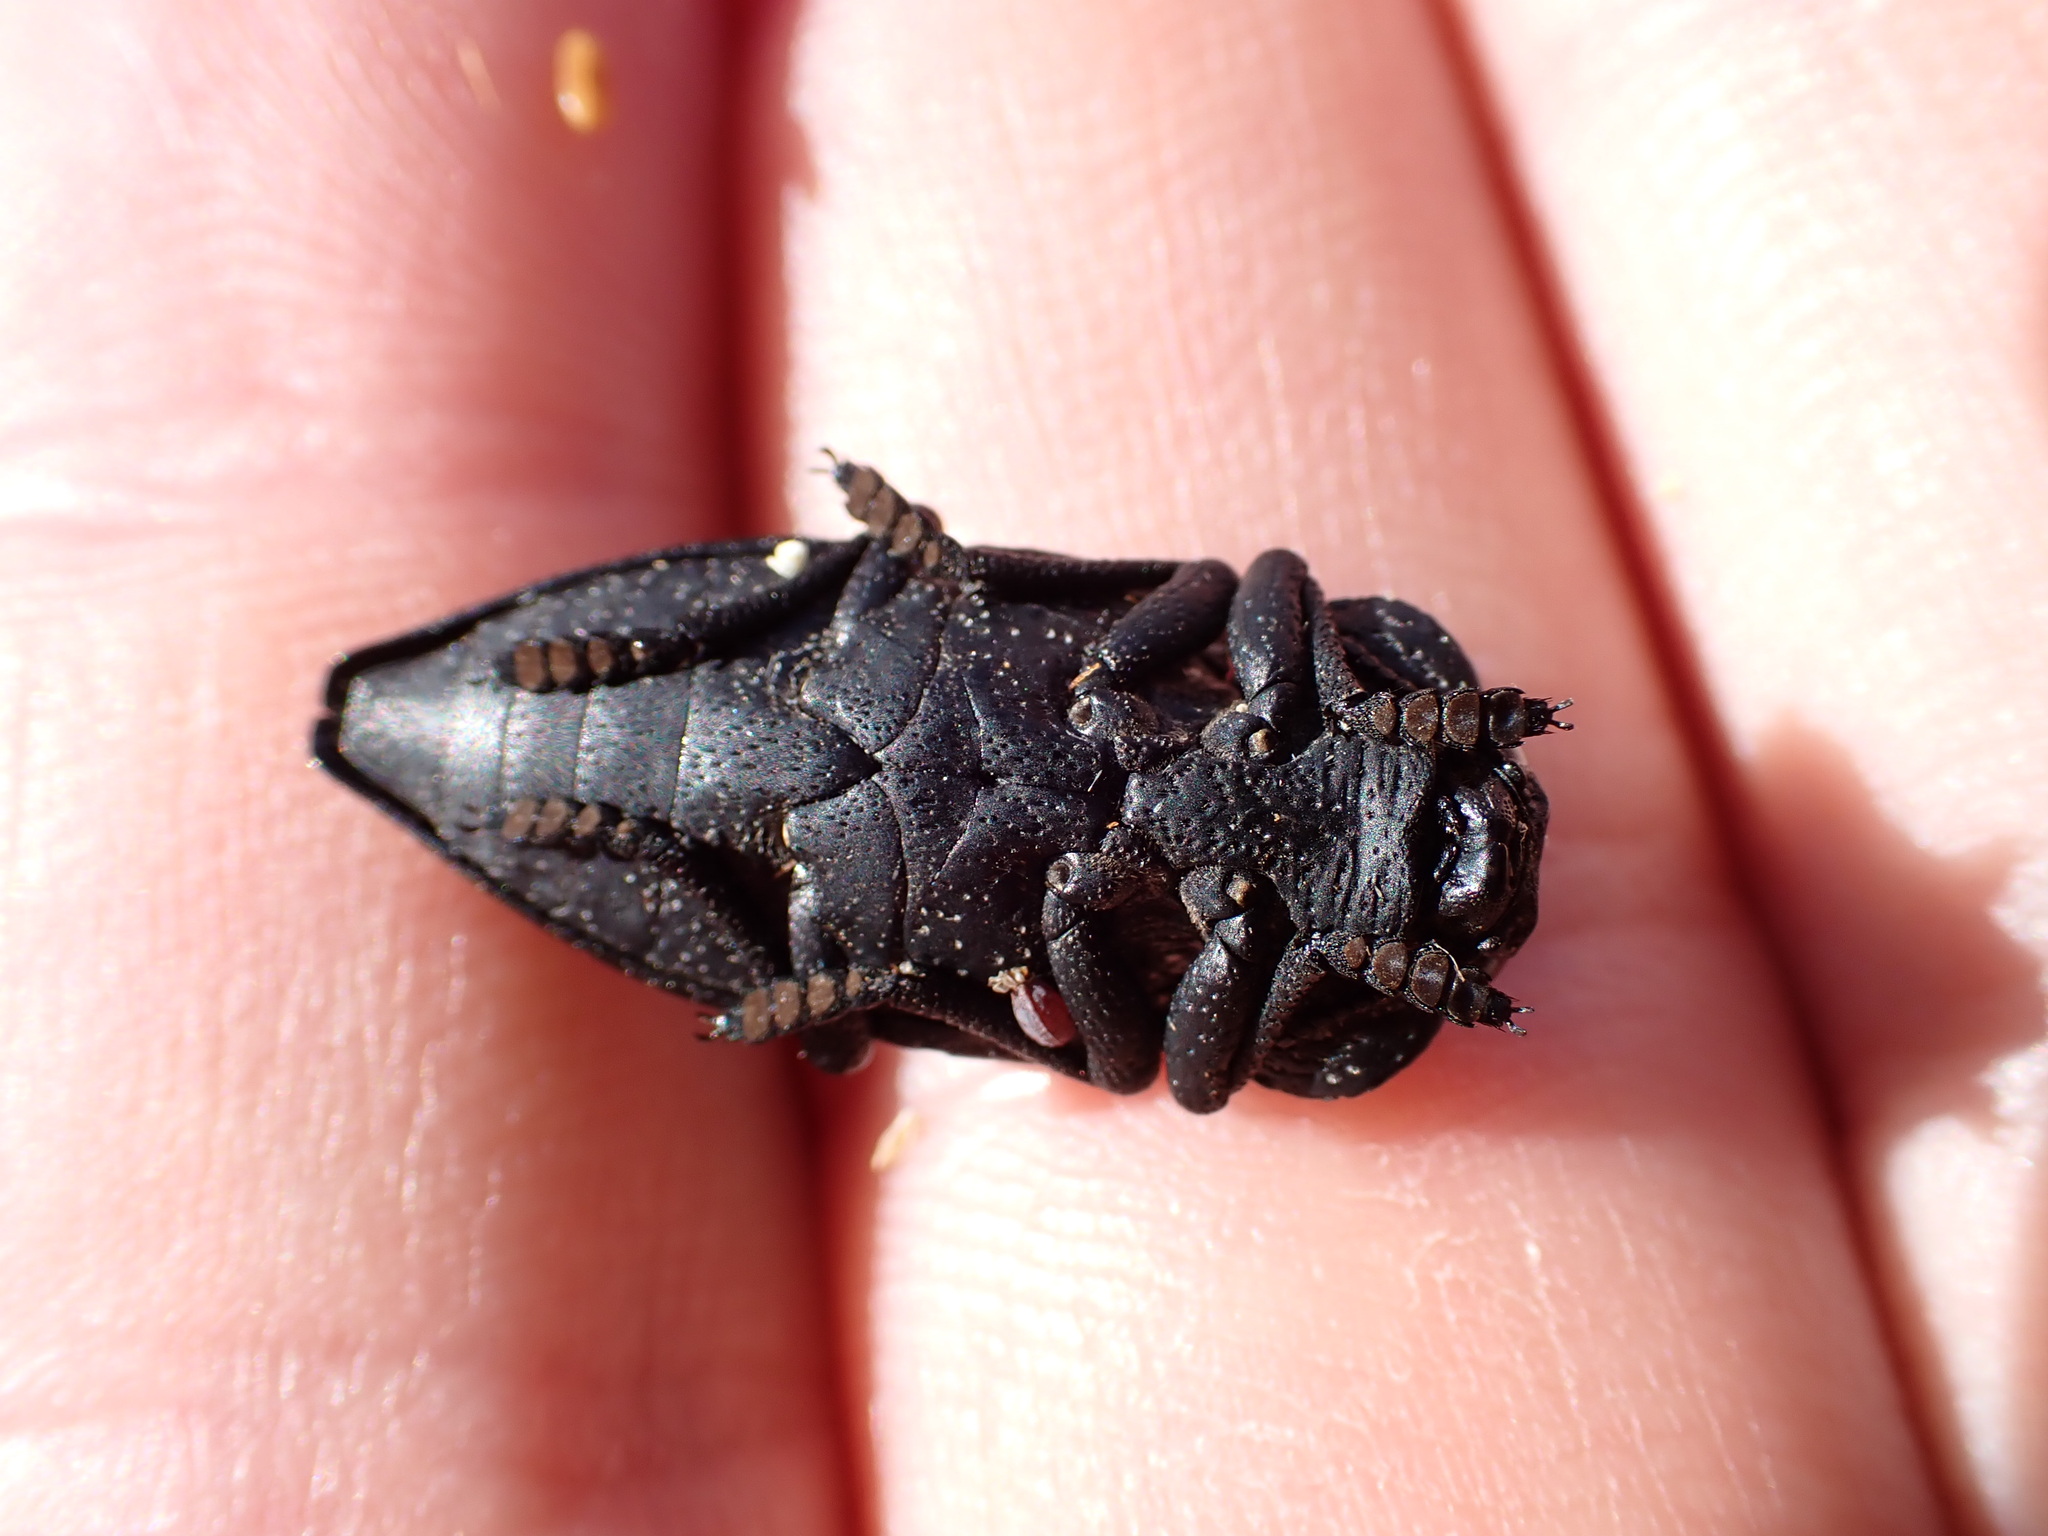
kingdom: Animalia
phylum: Arthropoda
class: Insecta
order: Coleoptera
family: Buprestidae
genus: Capnodis
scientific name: Capnodis tenebrionis
